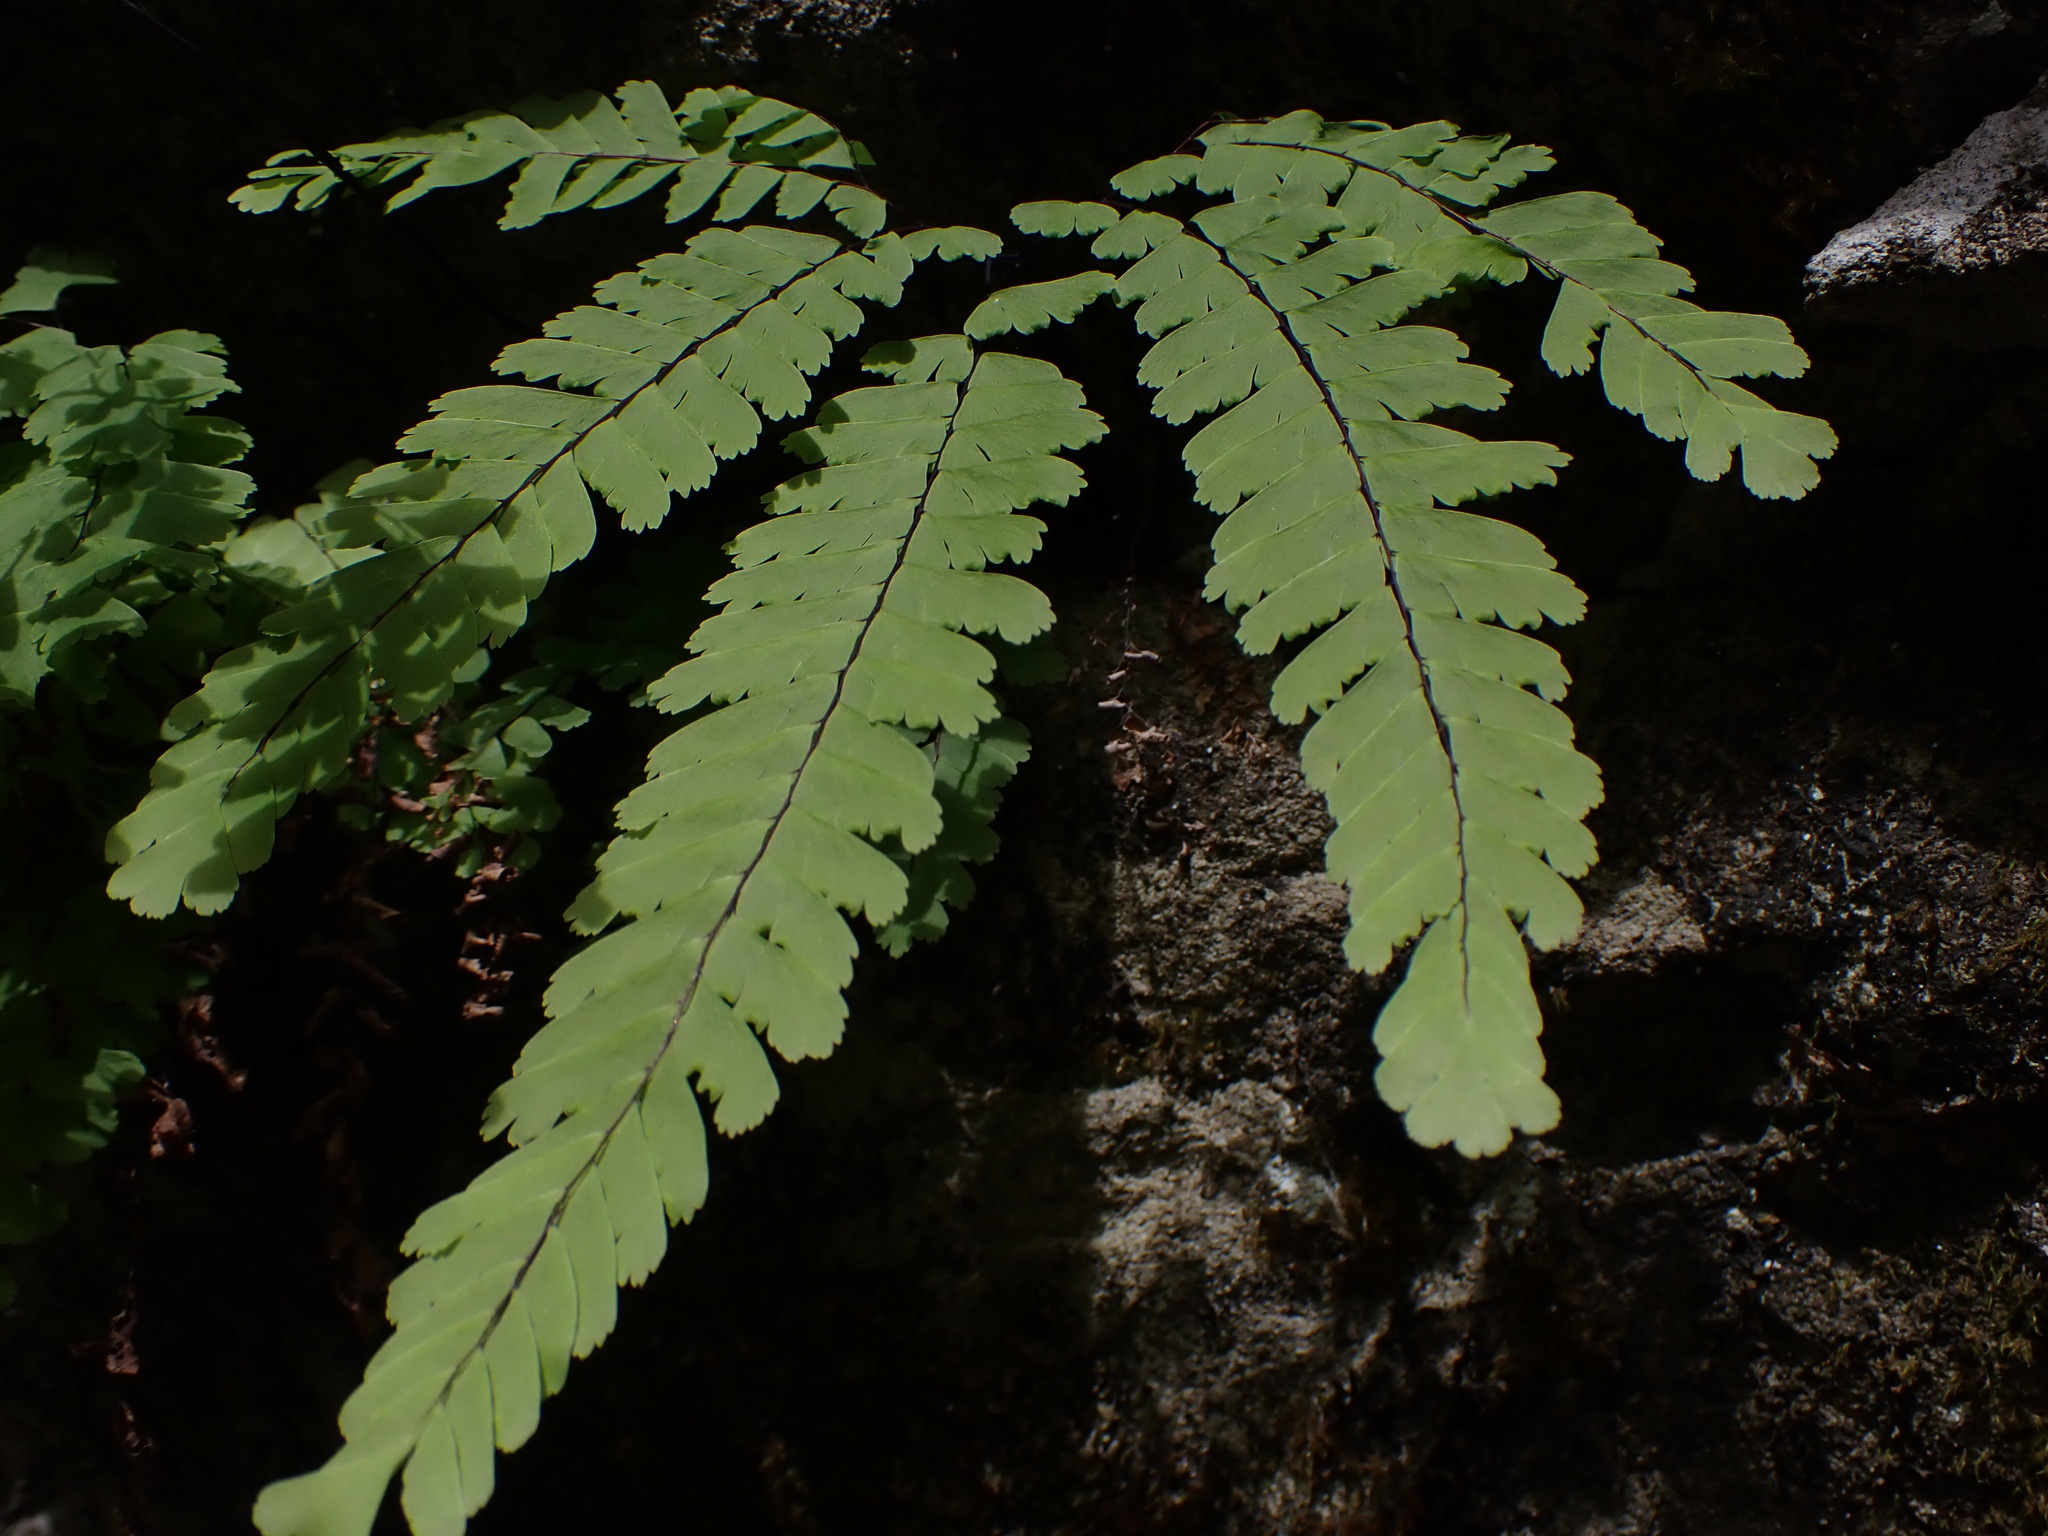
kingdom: Plantae
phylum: Tracheophyta
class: Polypodiopsida
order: Polypodiales
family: Pteridaceae
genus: Adiantum
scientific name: Adiantum aleuticum
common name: Aleutian maidenhair fern
